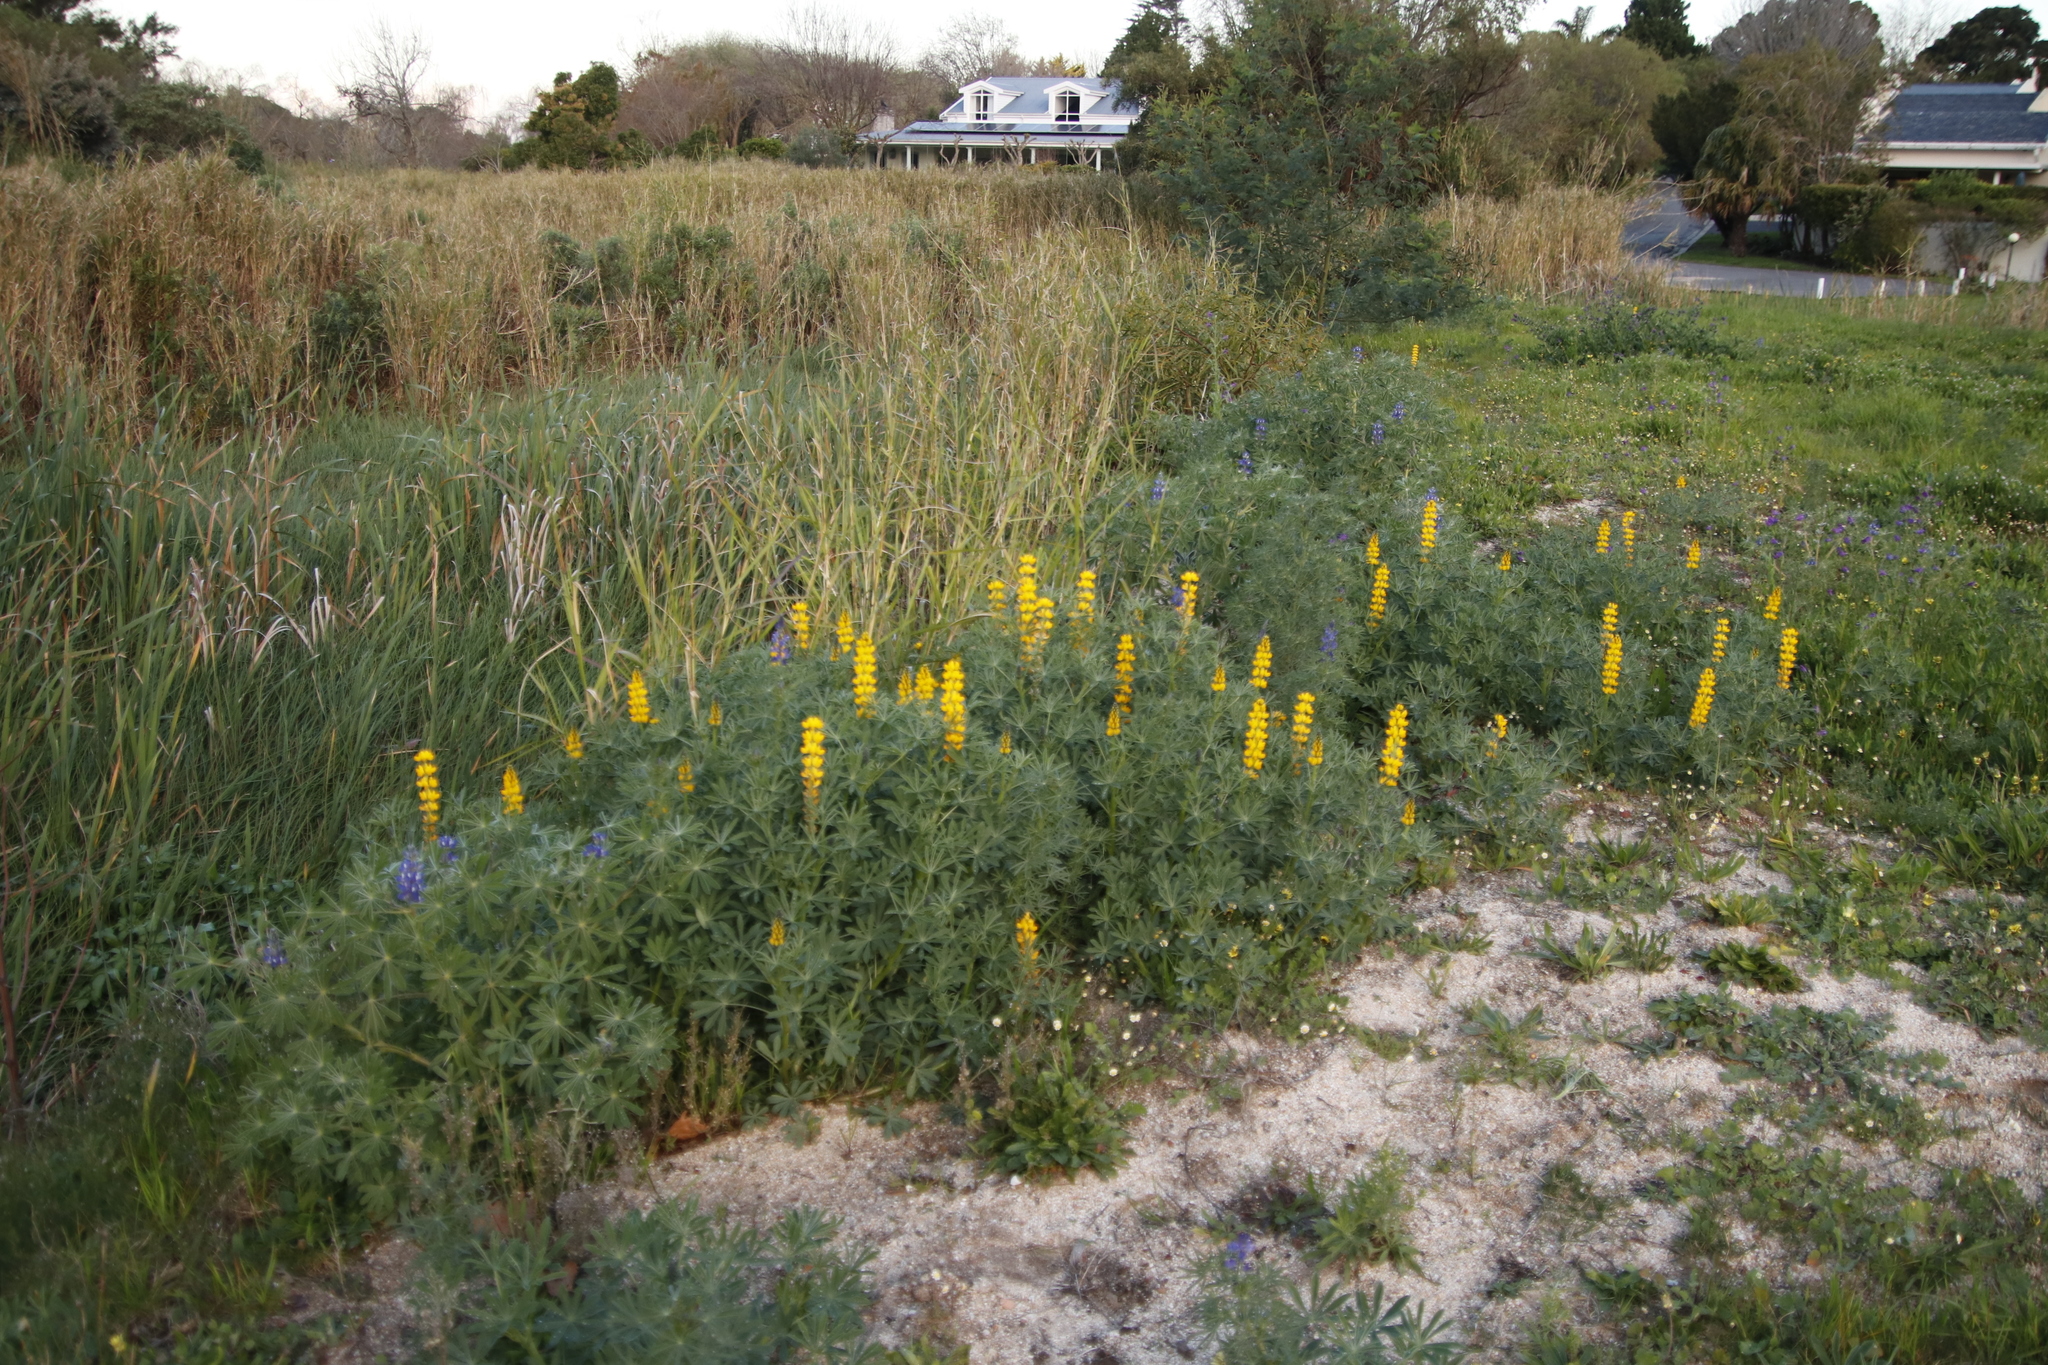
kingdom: Plantae
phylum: Tracheophyta
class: Magnoliopsida
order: Fabales
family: Fabaceae
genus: Lupinus
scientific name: Lupinus luteus
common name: European yellow lupine
